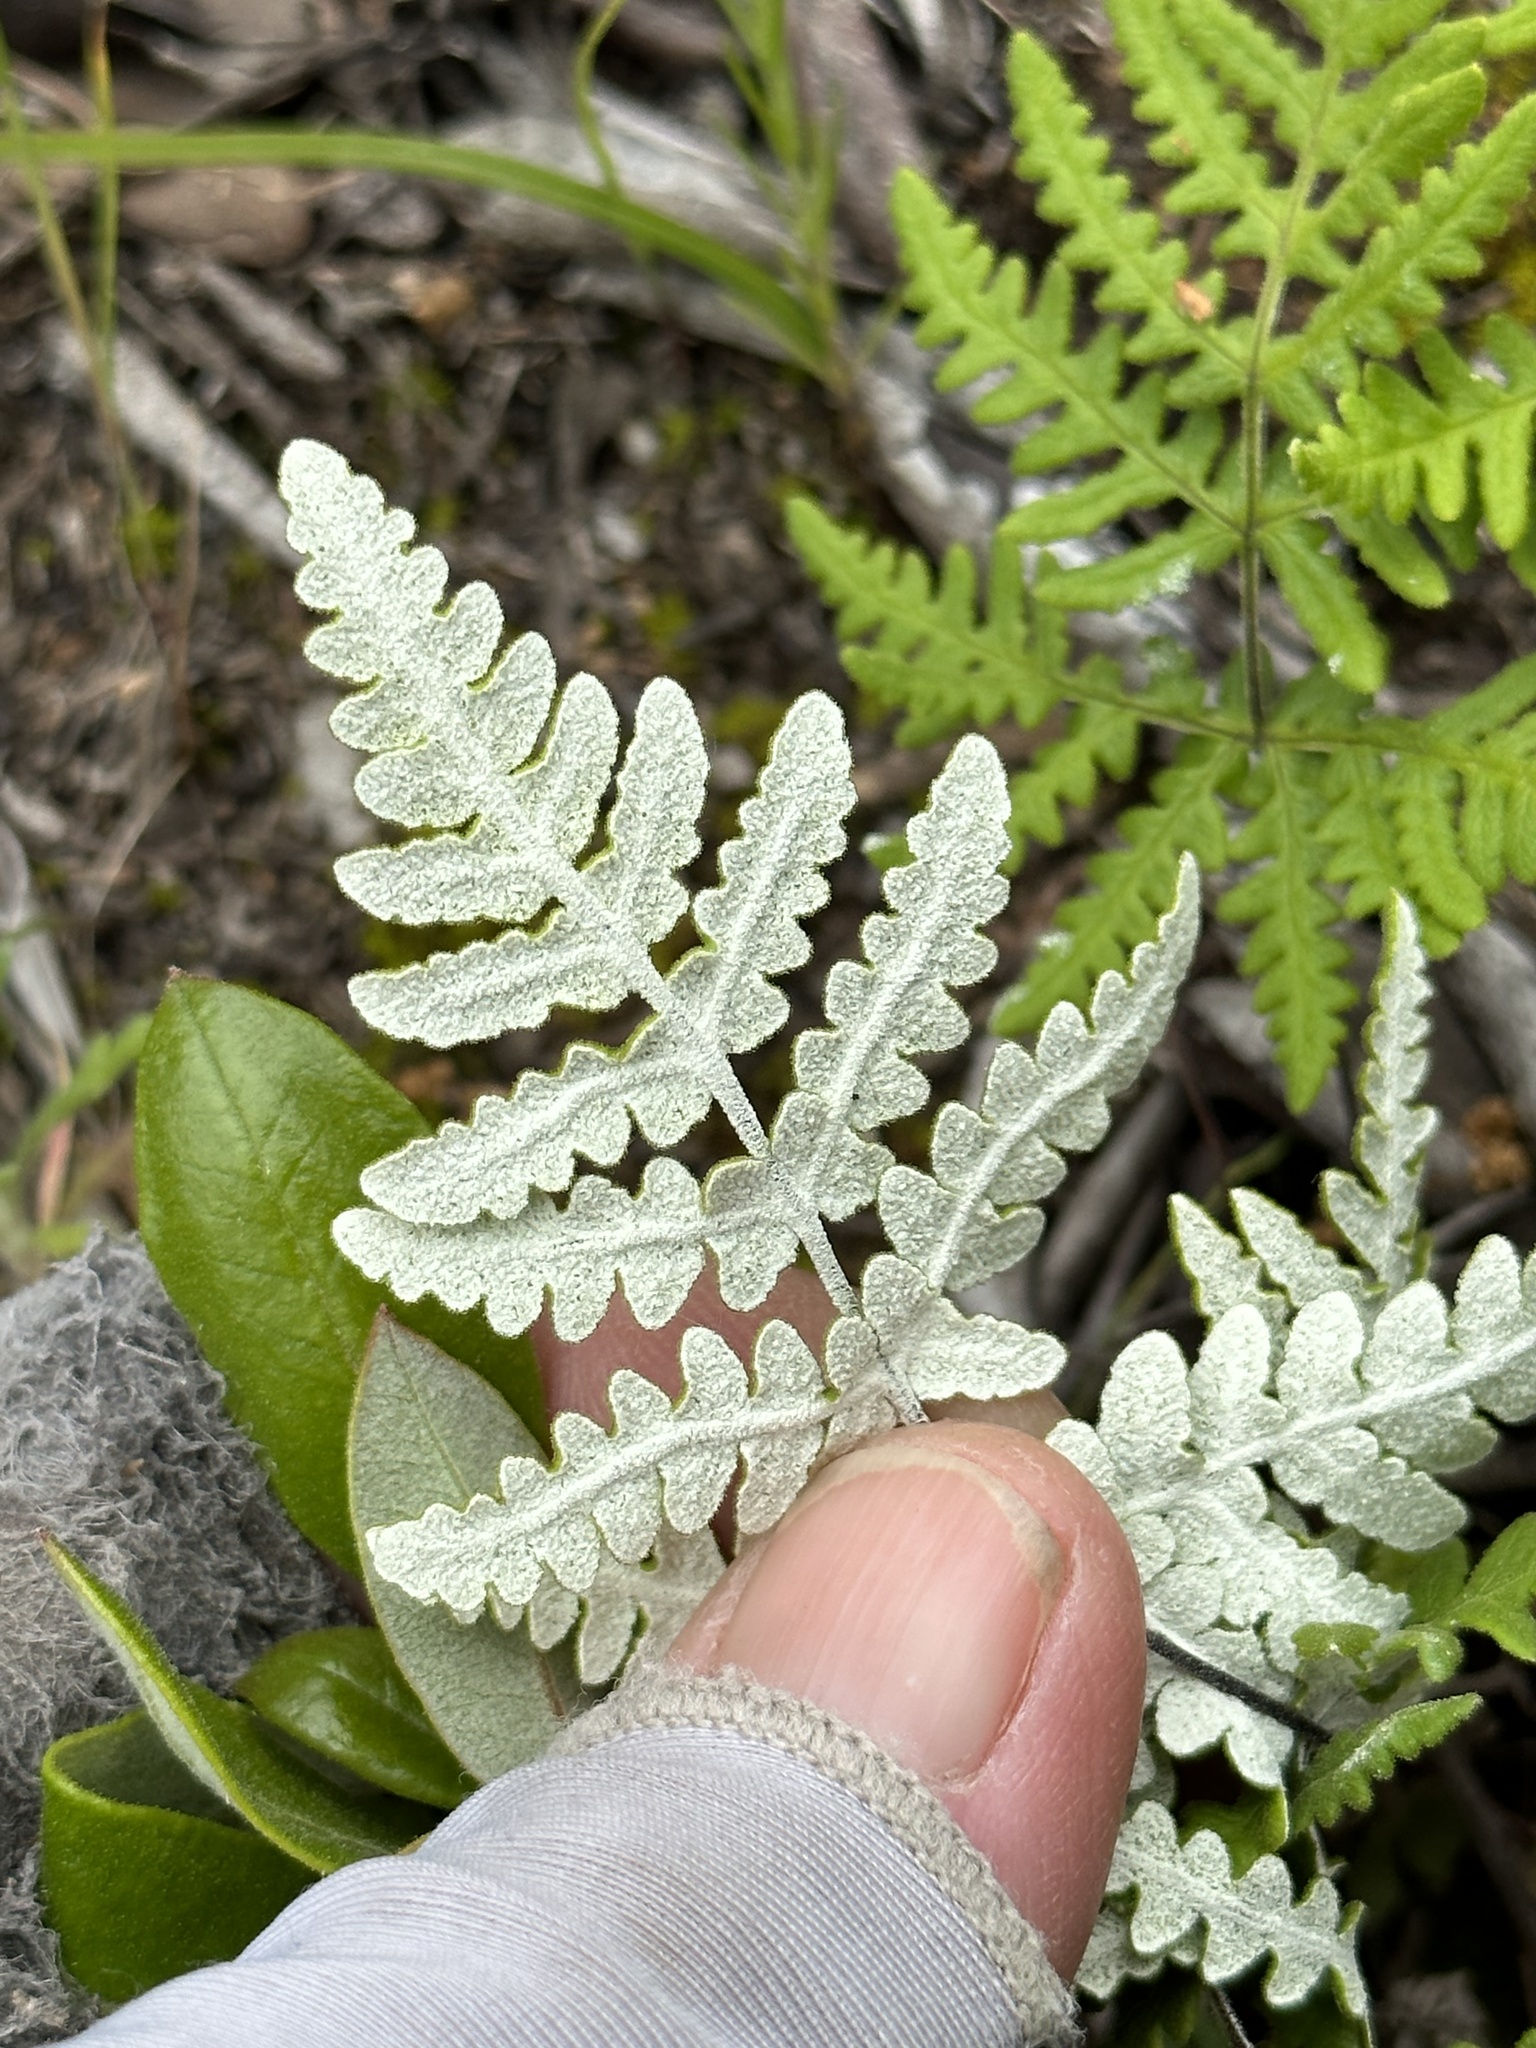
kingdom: Plantae
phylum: Tracheophyta
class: Polypodiopsida
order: Polypodiales
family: Pteridaceae
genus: Pentagramma
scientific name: Pentagramma glanduloviscida
